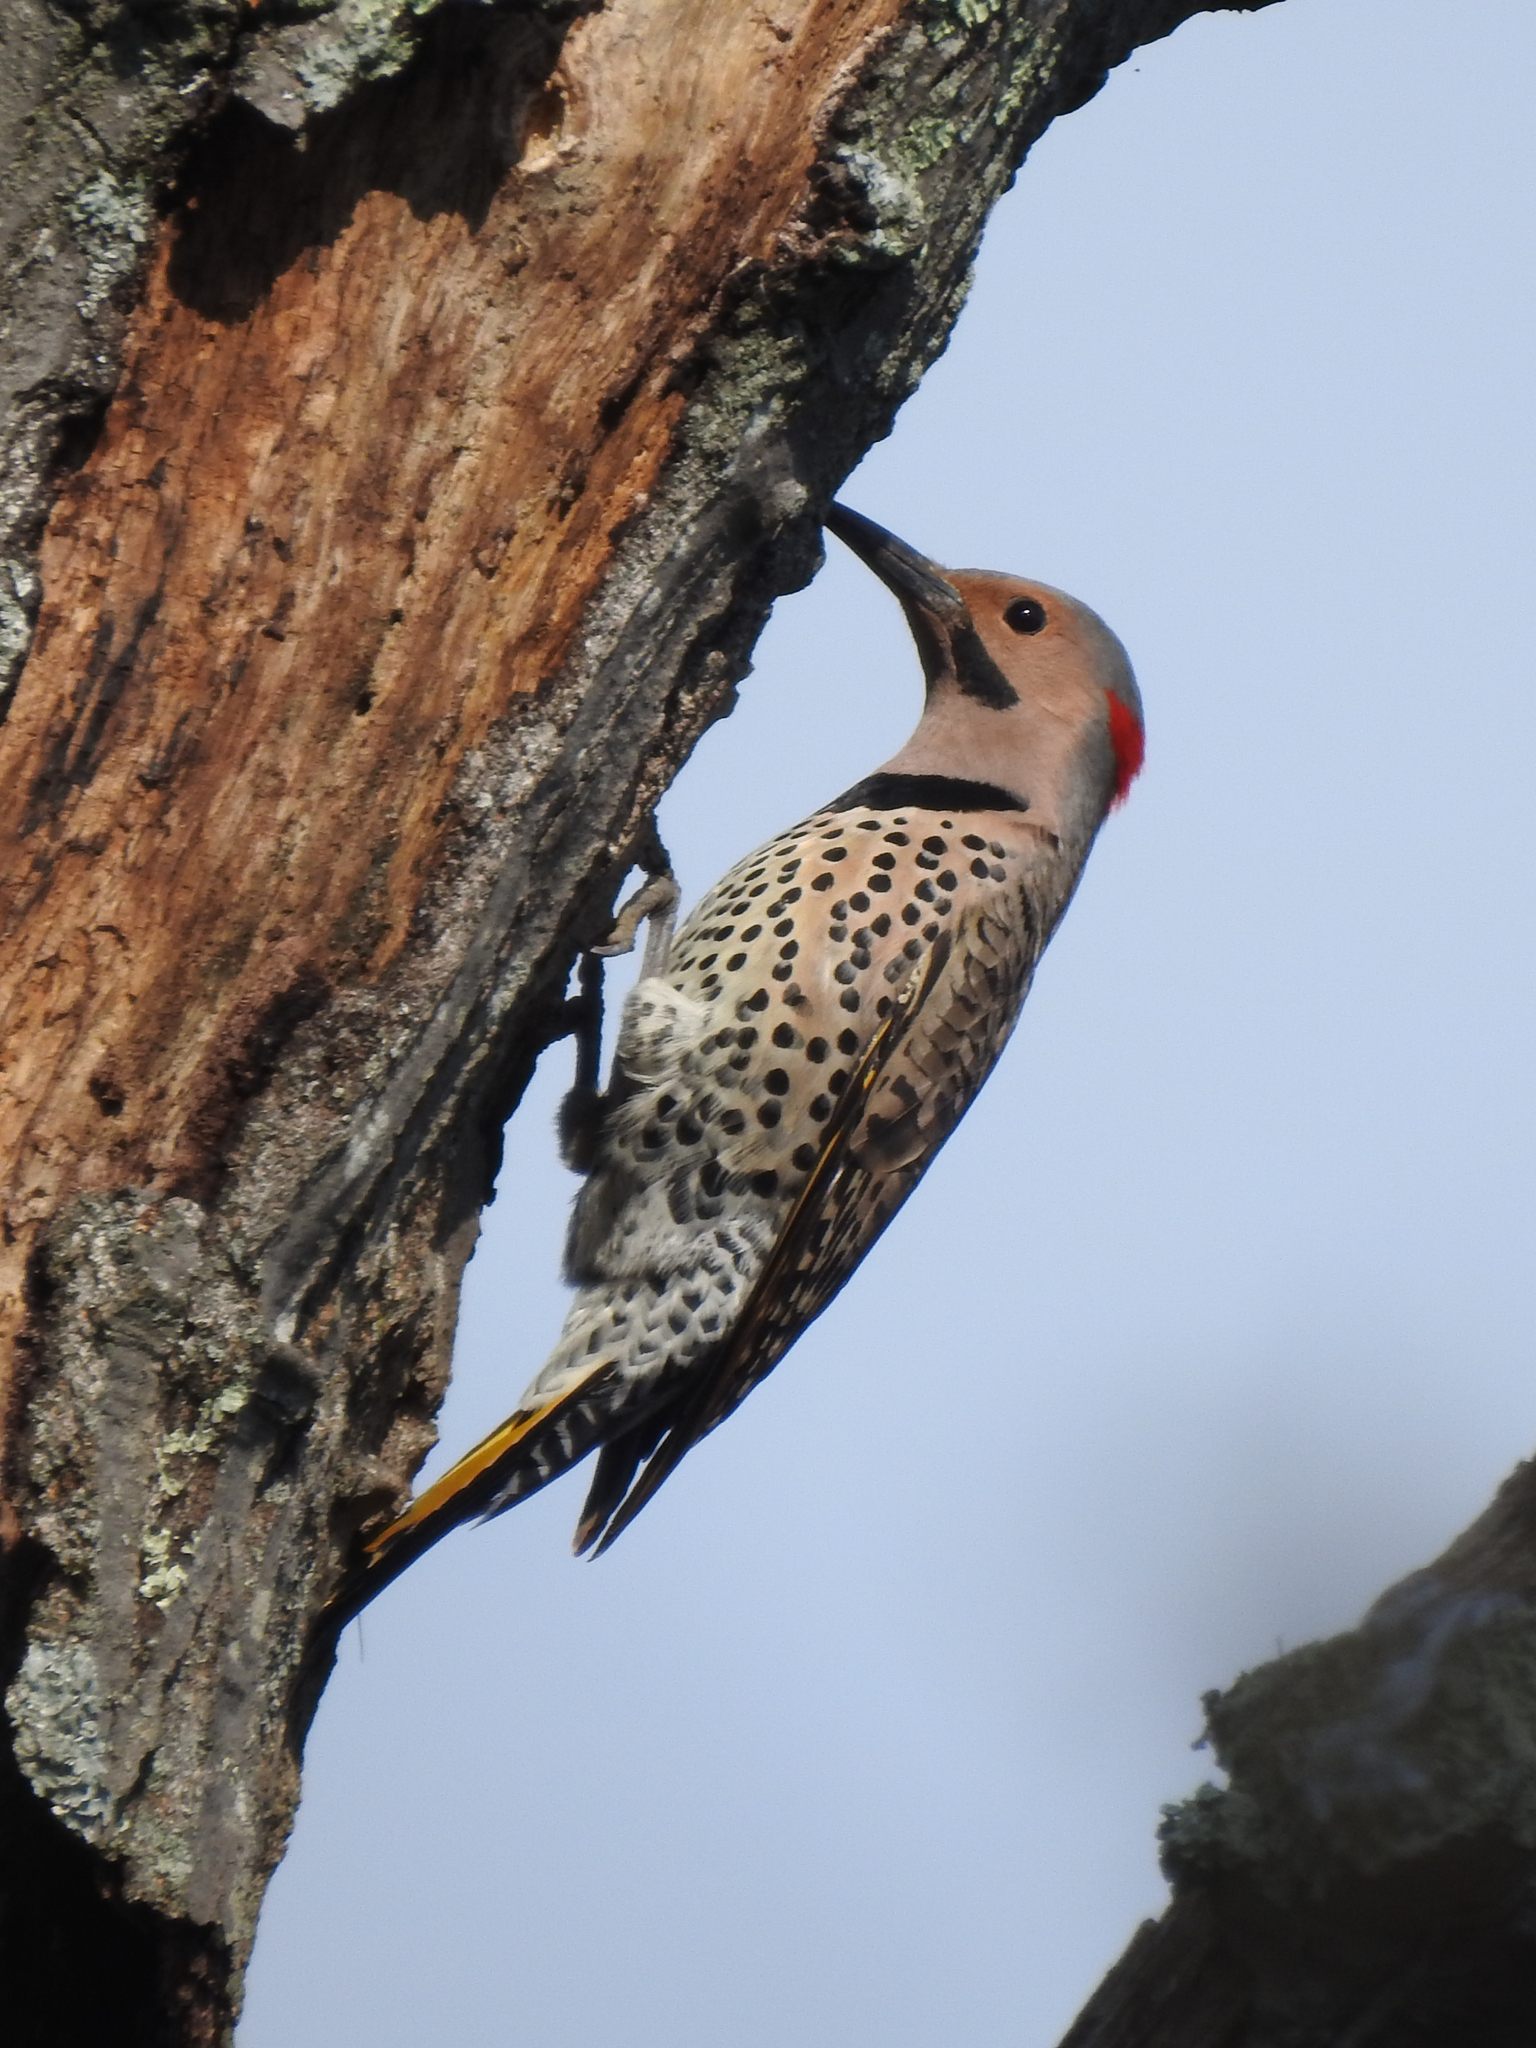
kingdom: Animalia
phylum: Chordata
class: Aves
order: Piciformes
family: Picidae
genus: Colaptes
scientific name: Colaptes auratus
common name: Northern flicker
